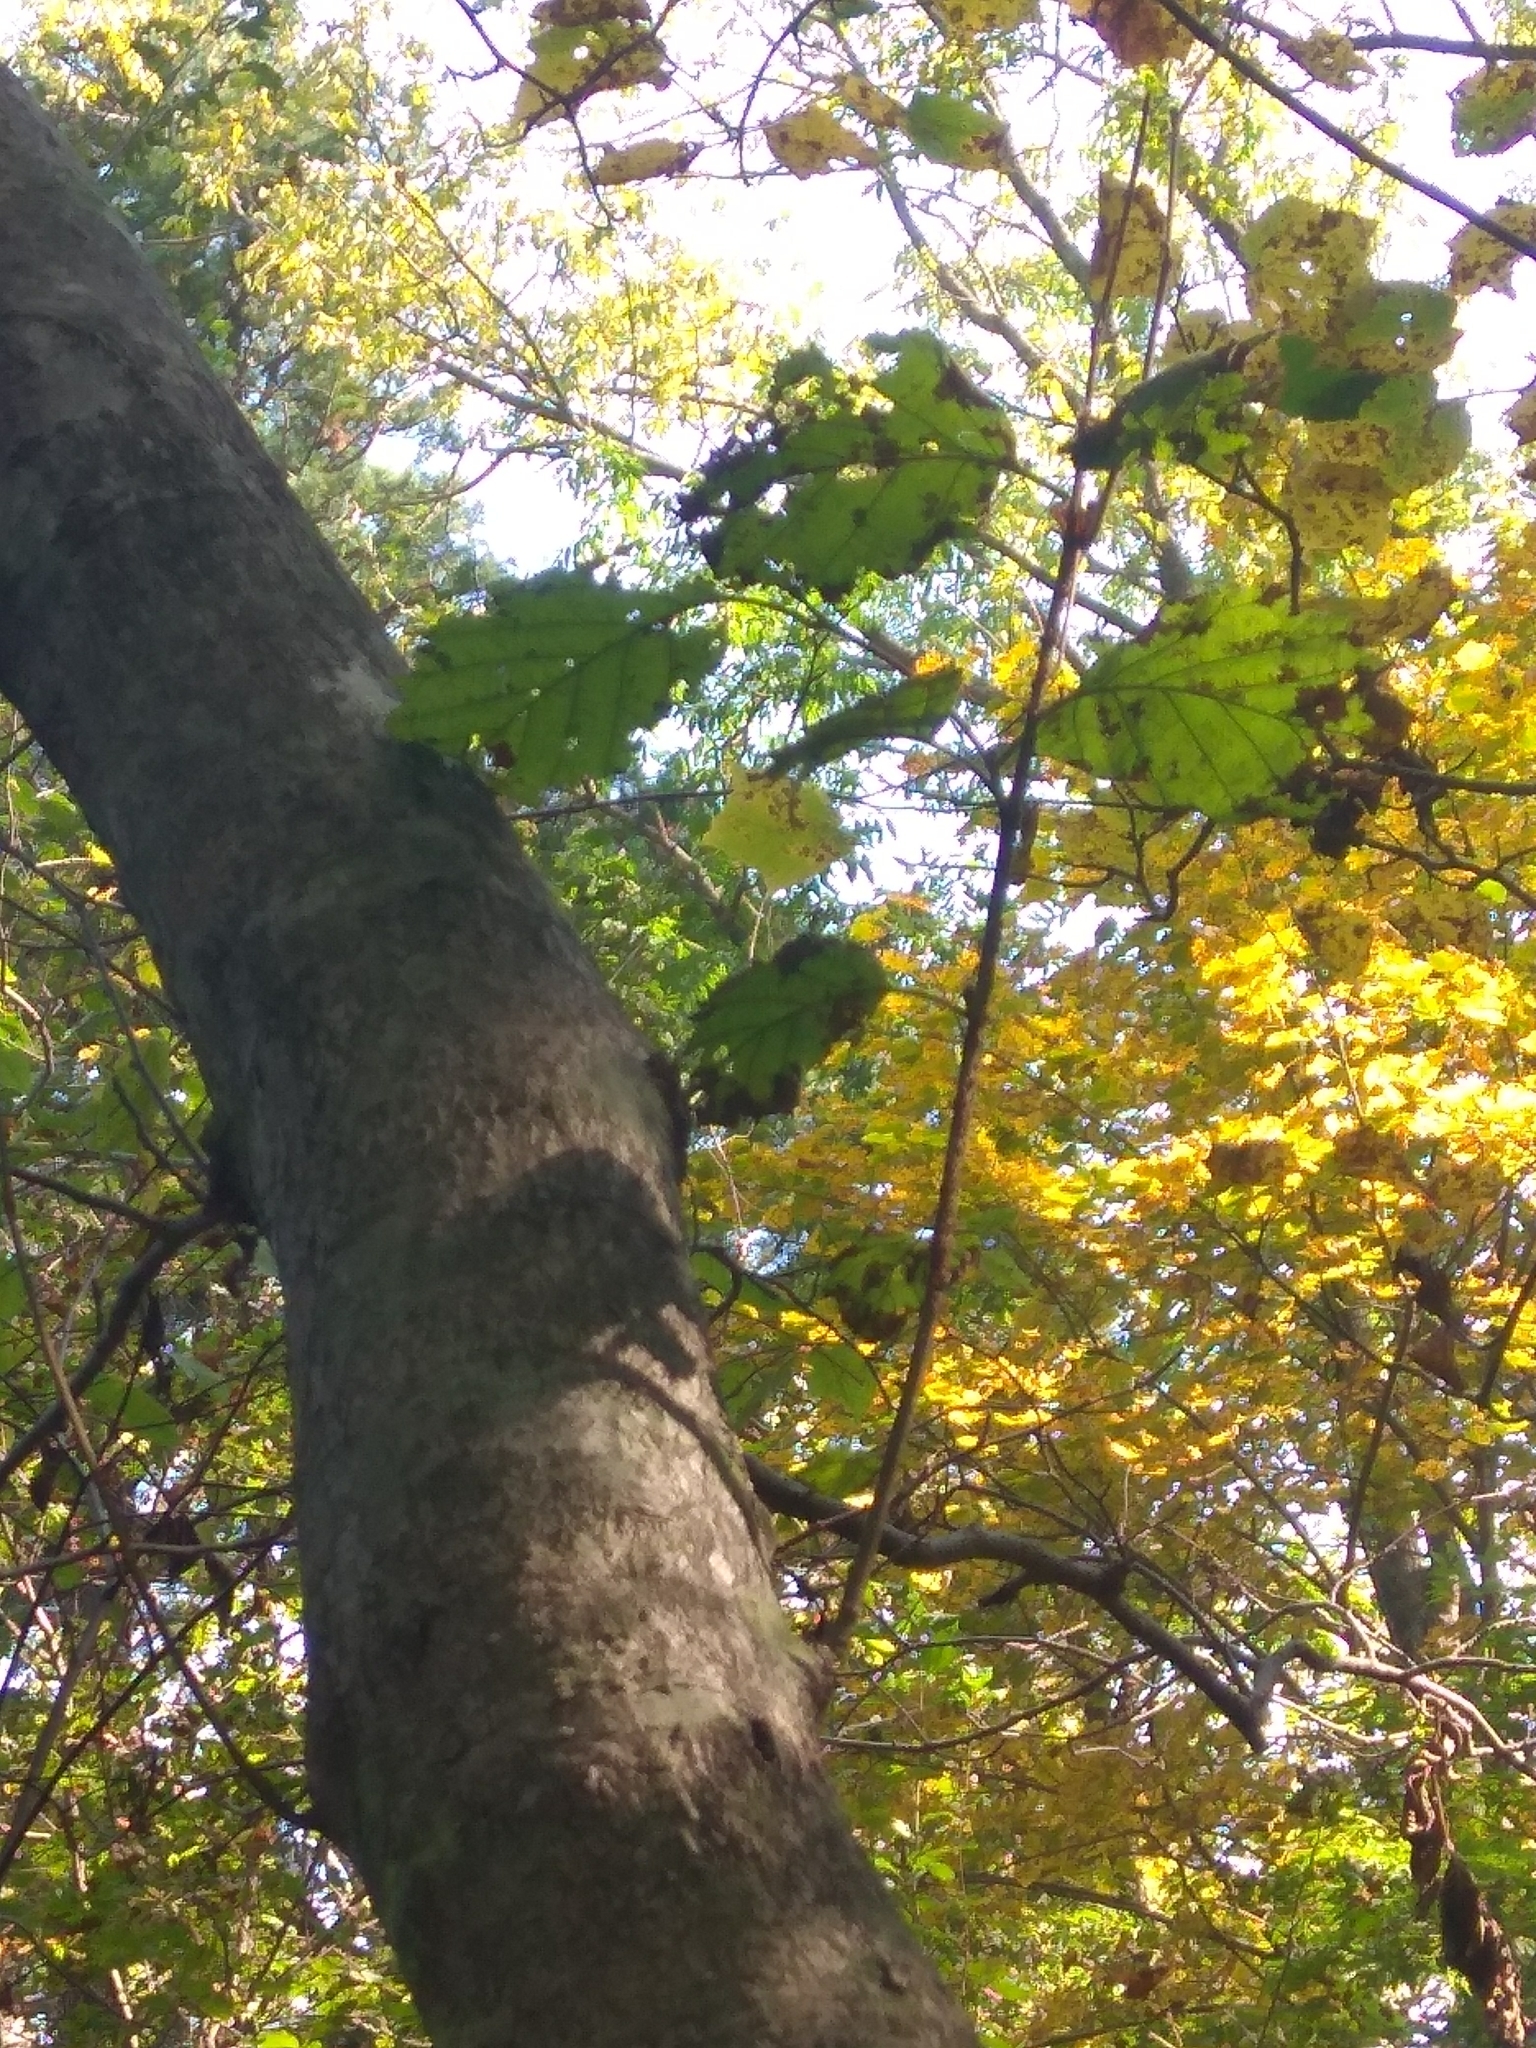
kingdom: Plantae
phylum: Tracheophyta
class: Magnoliopsida
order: Fagales
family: Betulaceae
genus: Alnus
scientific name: Alnus hirsuta
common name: Manchurian alder
